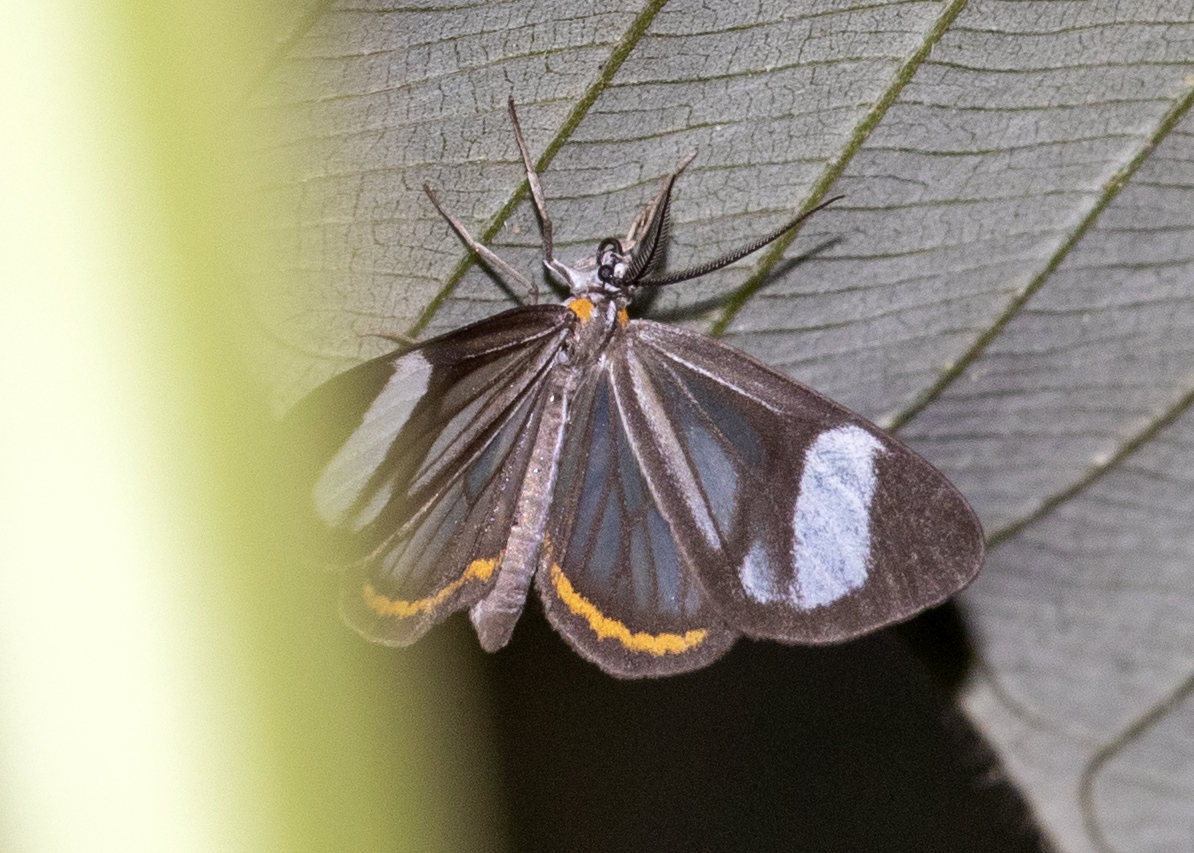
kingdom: Animalia
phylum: Arthropoda
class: Insecta
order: Lepidoptera
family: Notodontidae
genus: Dioptis
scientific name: Dioptis charon
